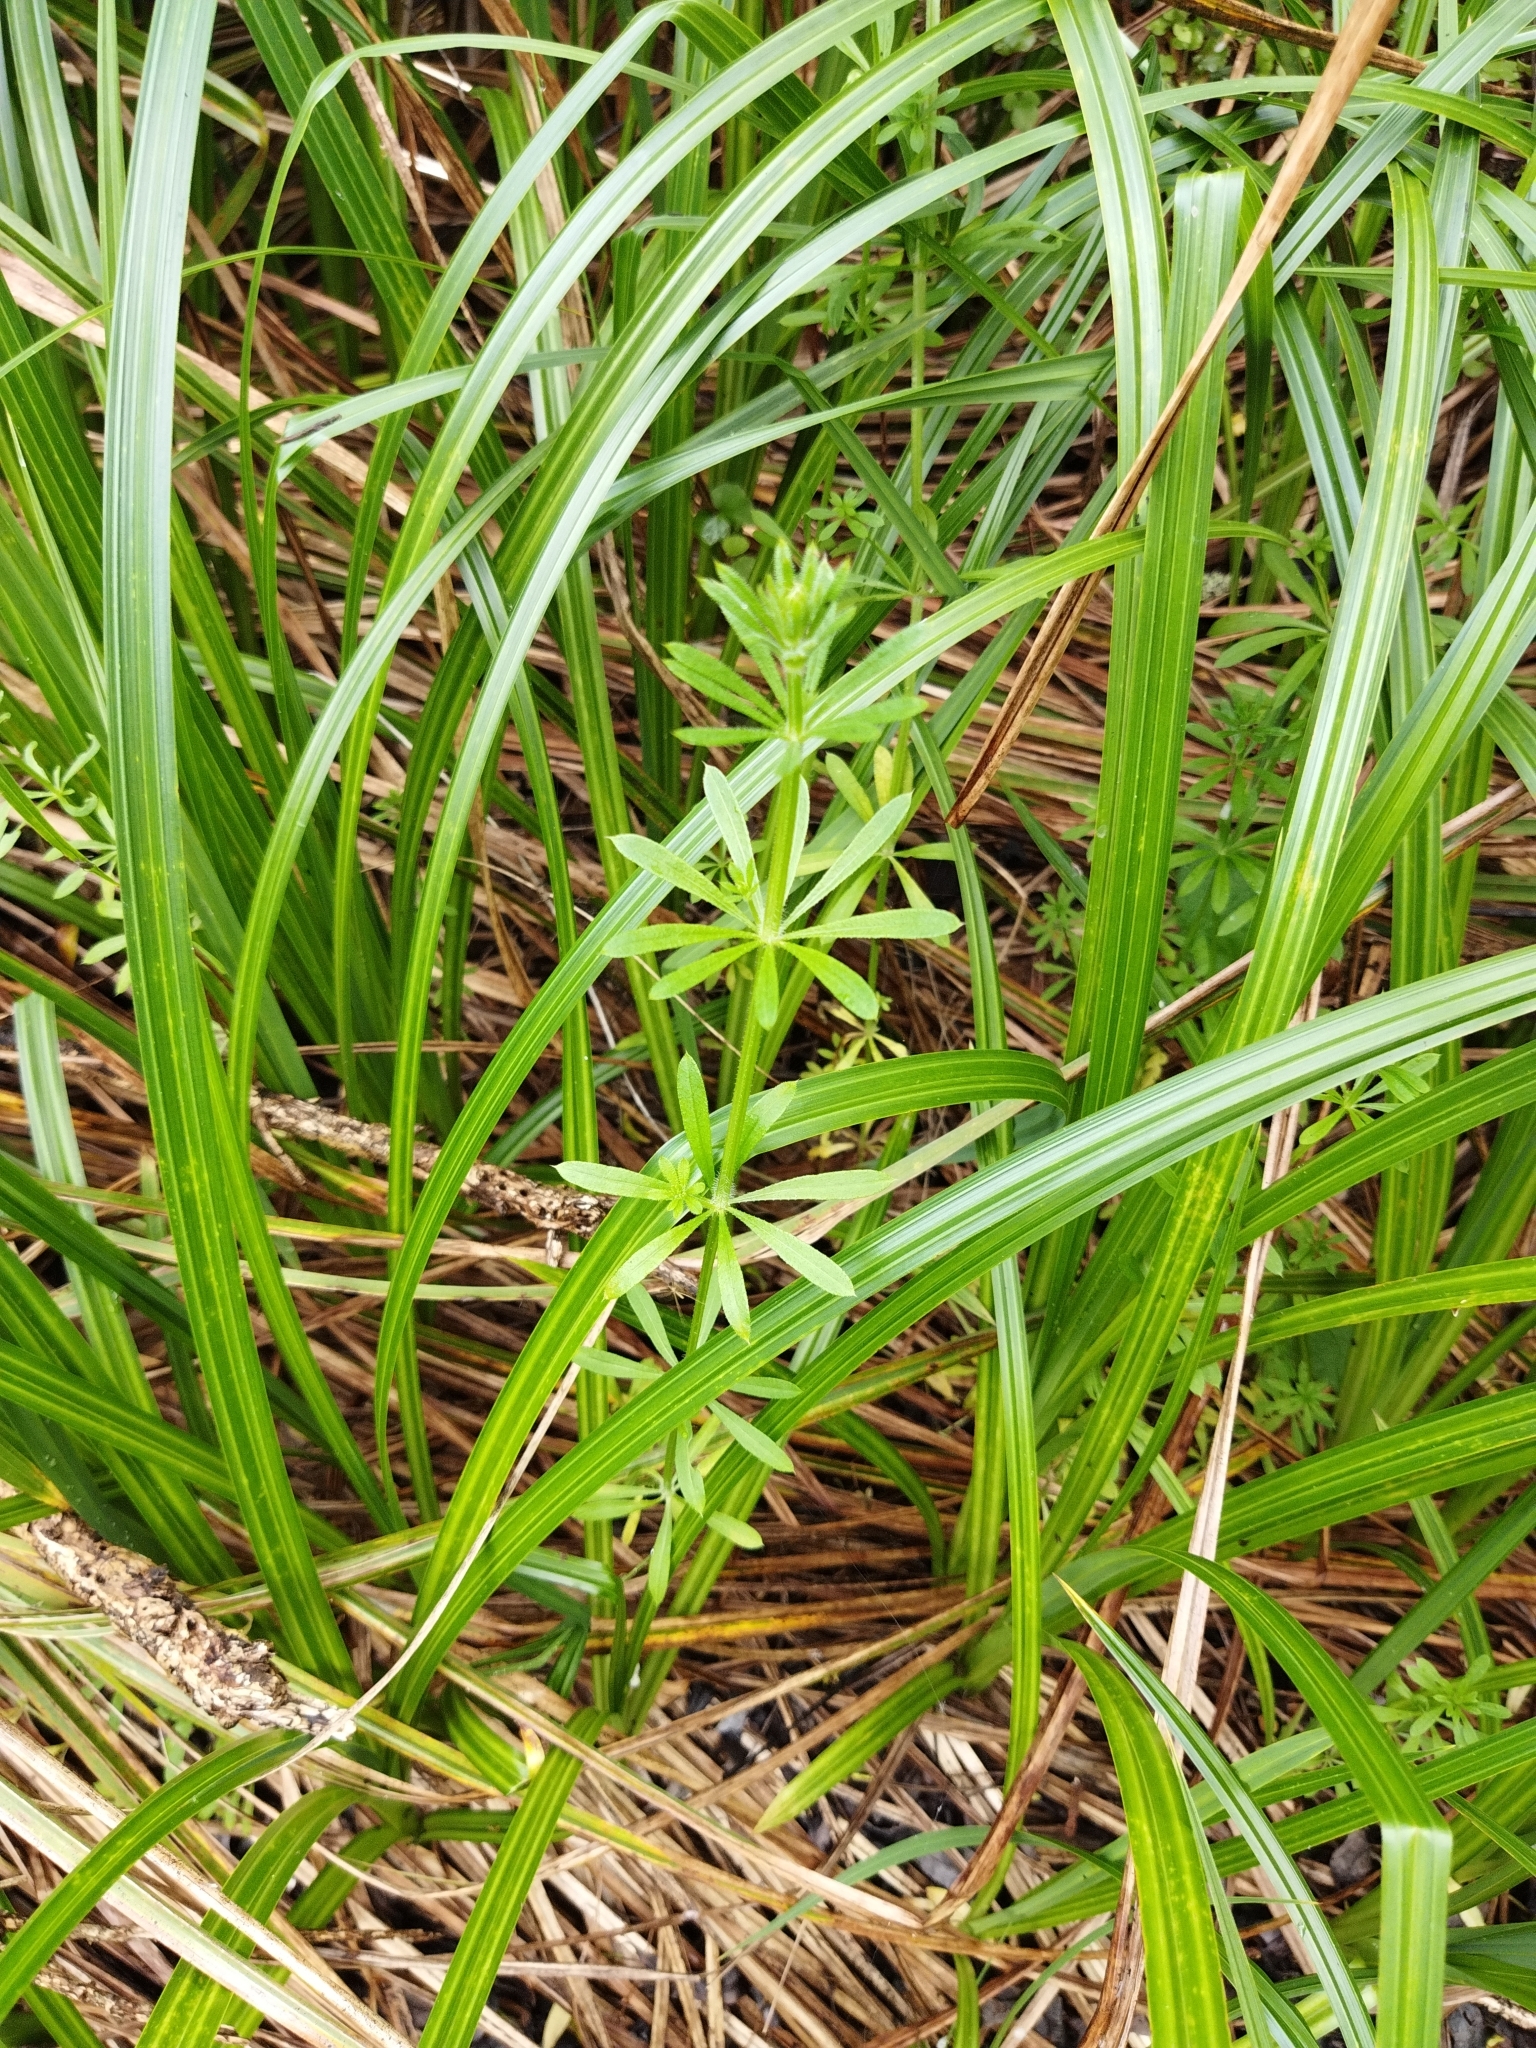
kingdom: Plantae
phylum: Tracheophyta
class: Magnoliopsida
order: Gentianales
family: Rubiaceae
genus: Galium
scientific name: Galium aparine
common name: Cleavers
